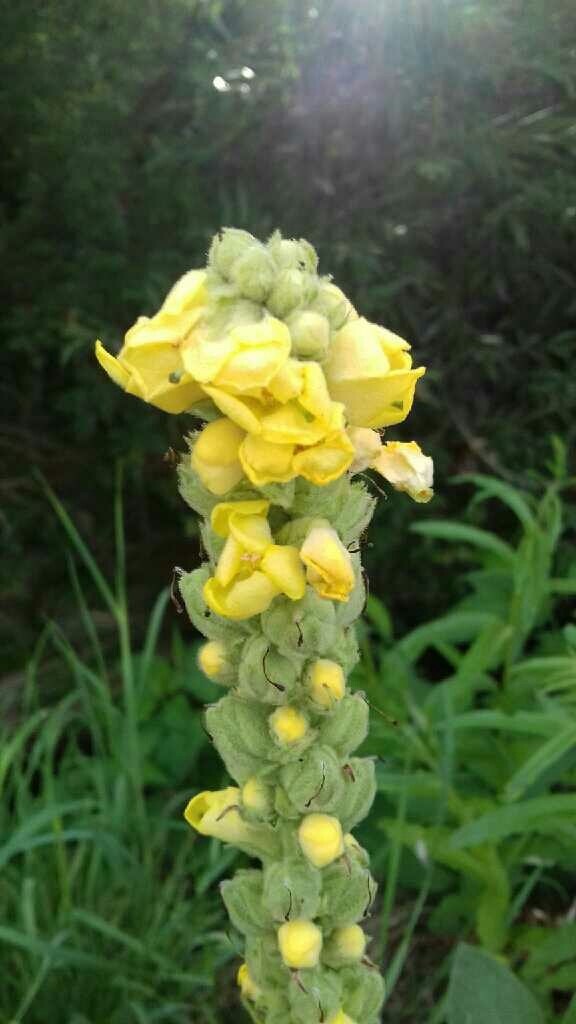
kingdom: Plantae
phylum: Tracheophyta
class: Magnoliopsida
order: Lamiales
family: Scrophulariaceae
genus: Verbascum
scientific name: Verbascum thapsus
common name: Common mullein
